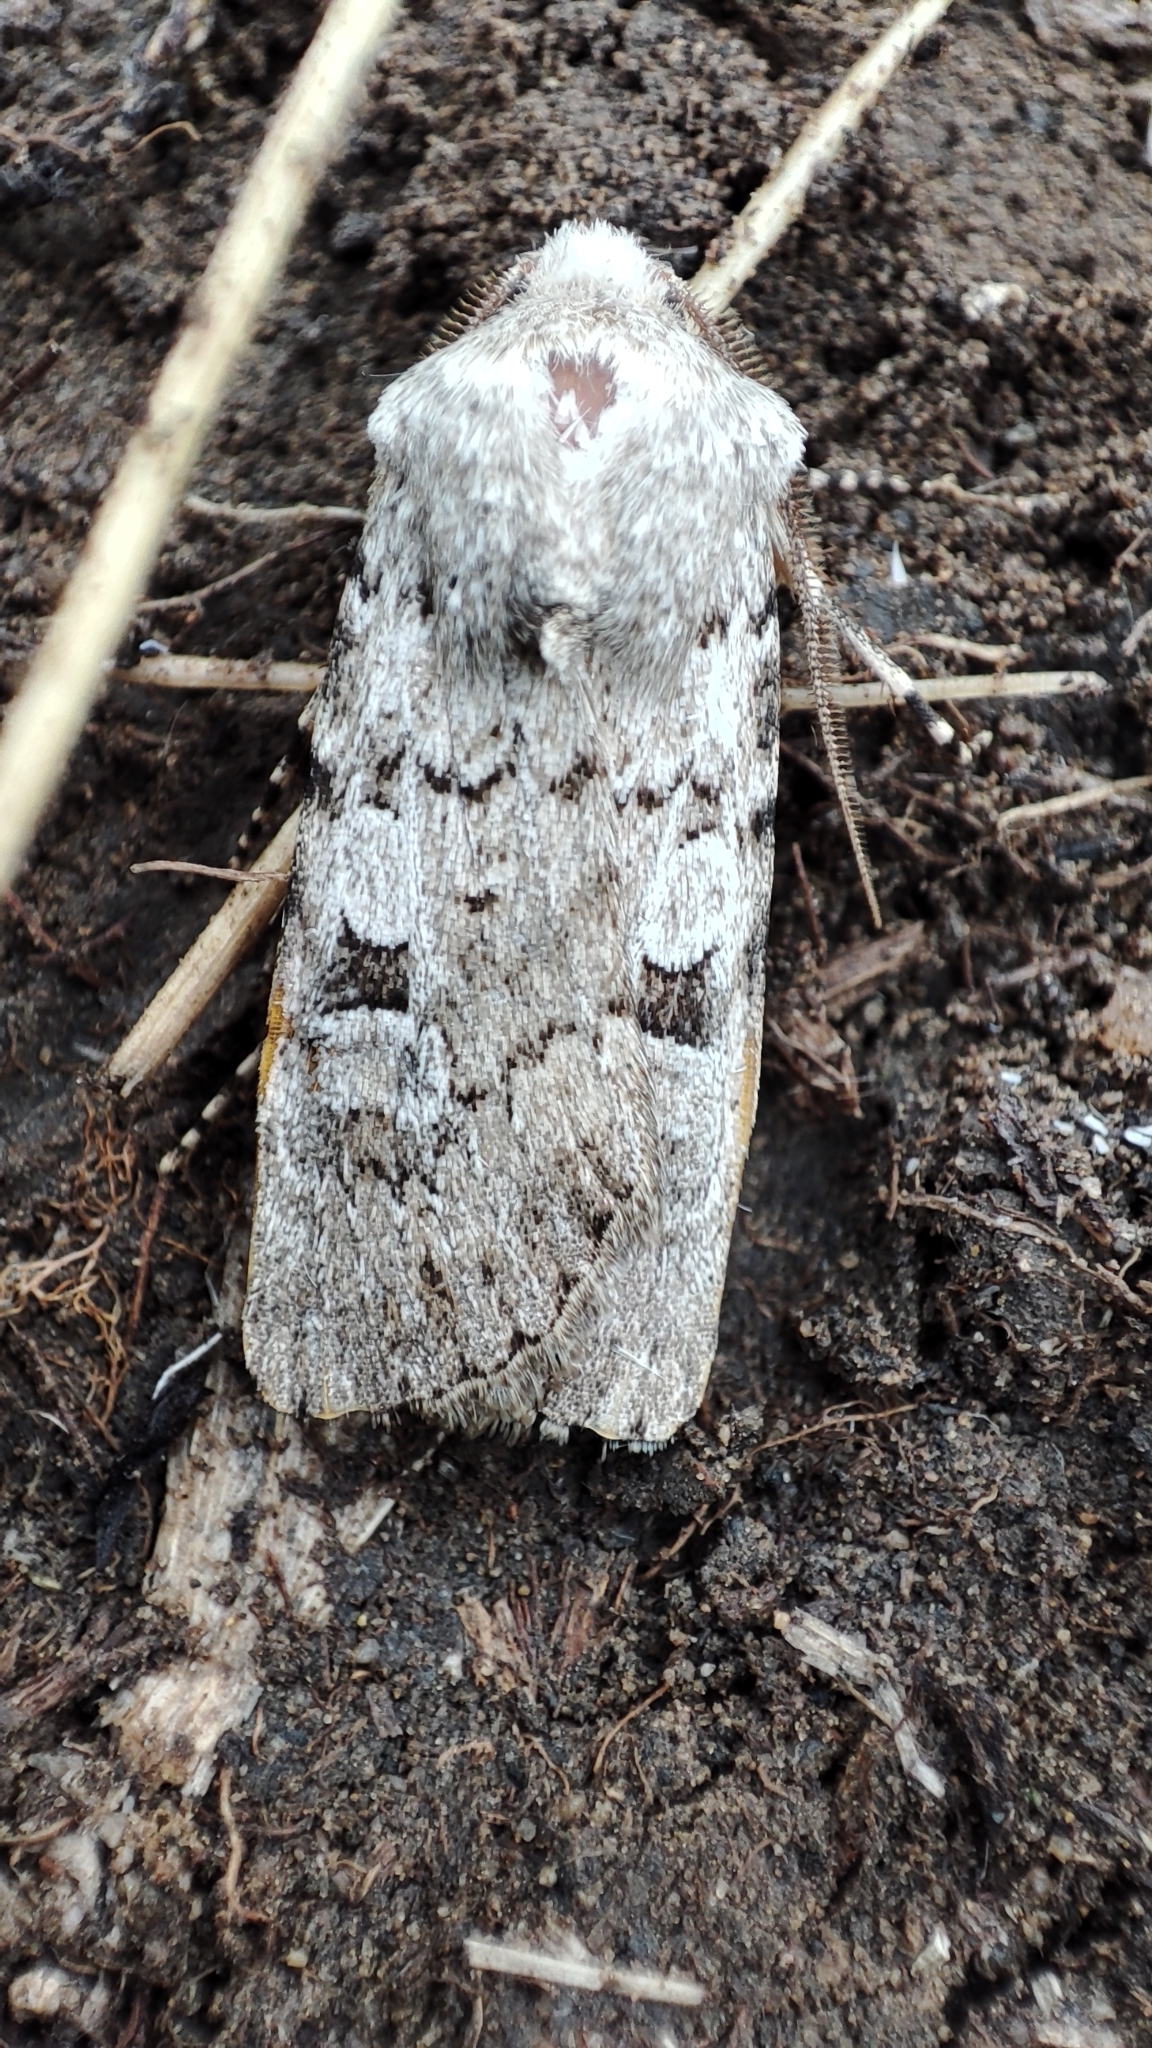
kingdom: Animalia
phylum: Arthropoda
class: Insecta
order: Lepidoptera
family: Noctuidae
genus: Euxoa
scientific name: Euxoa deserta
